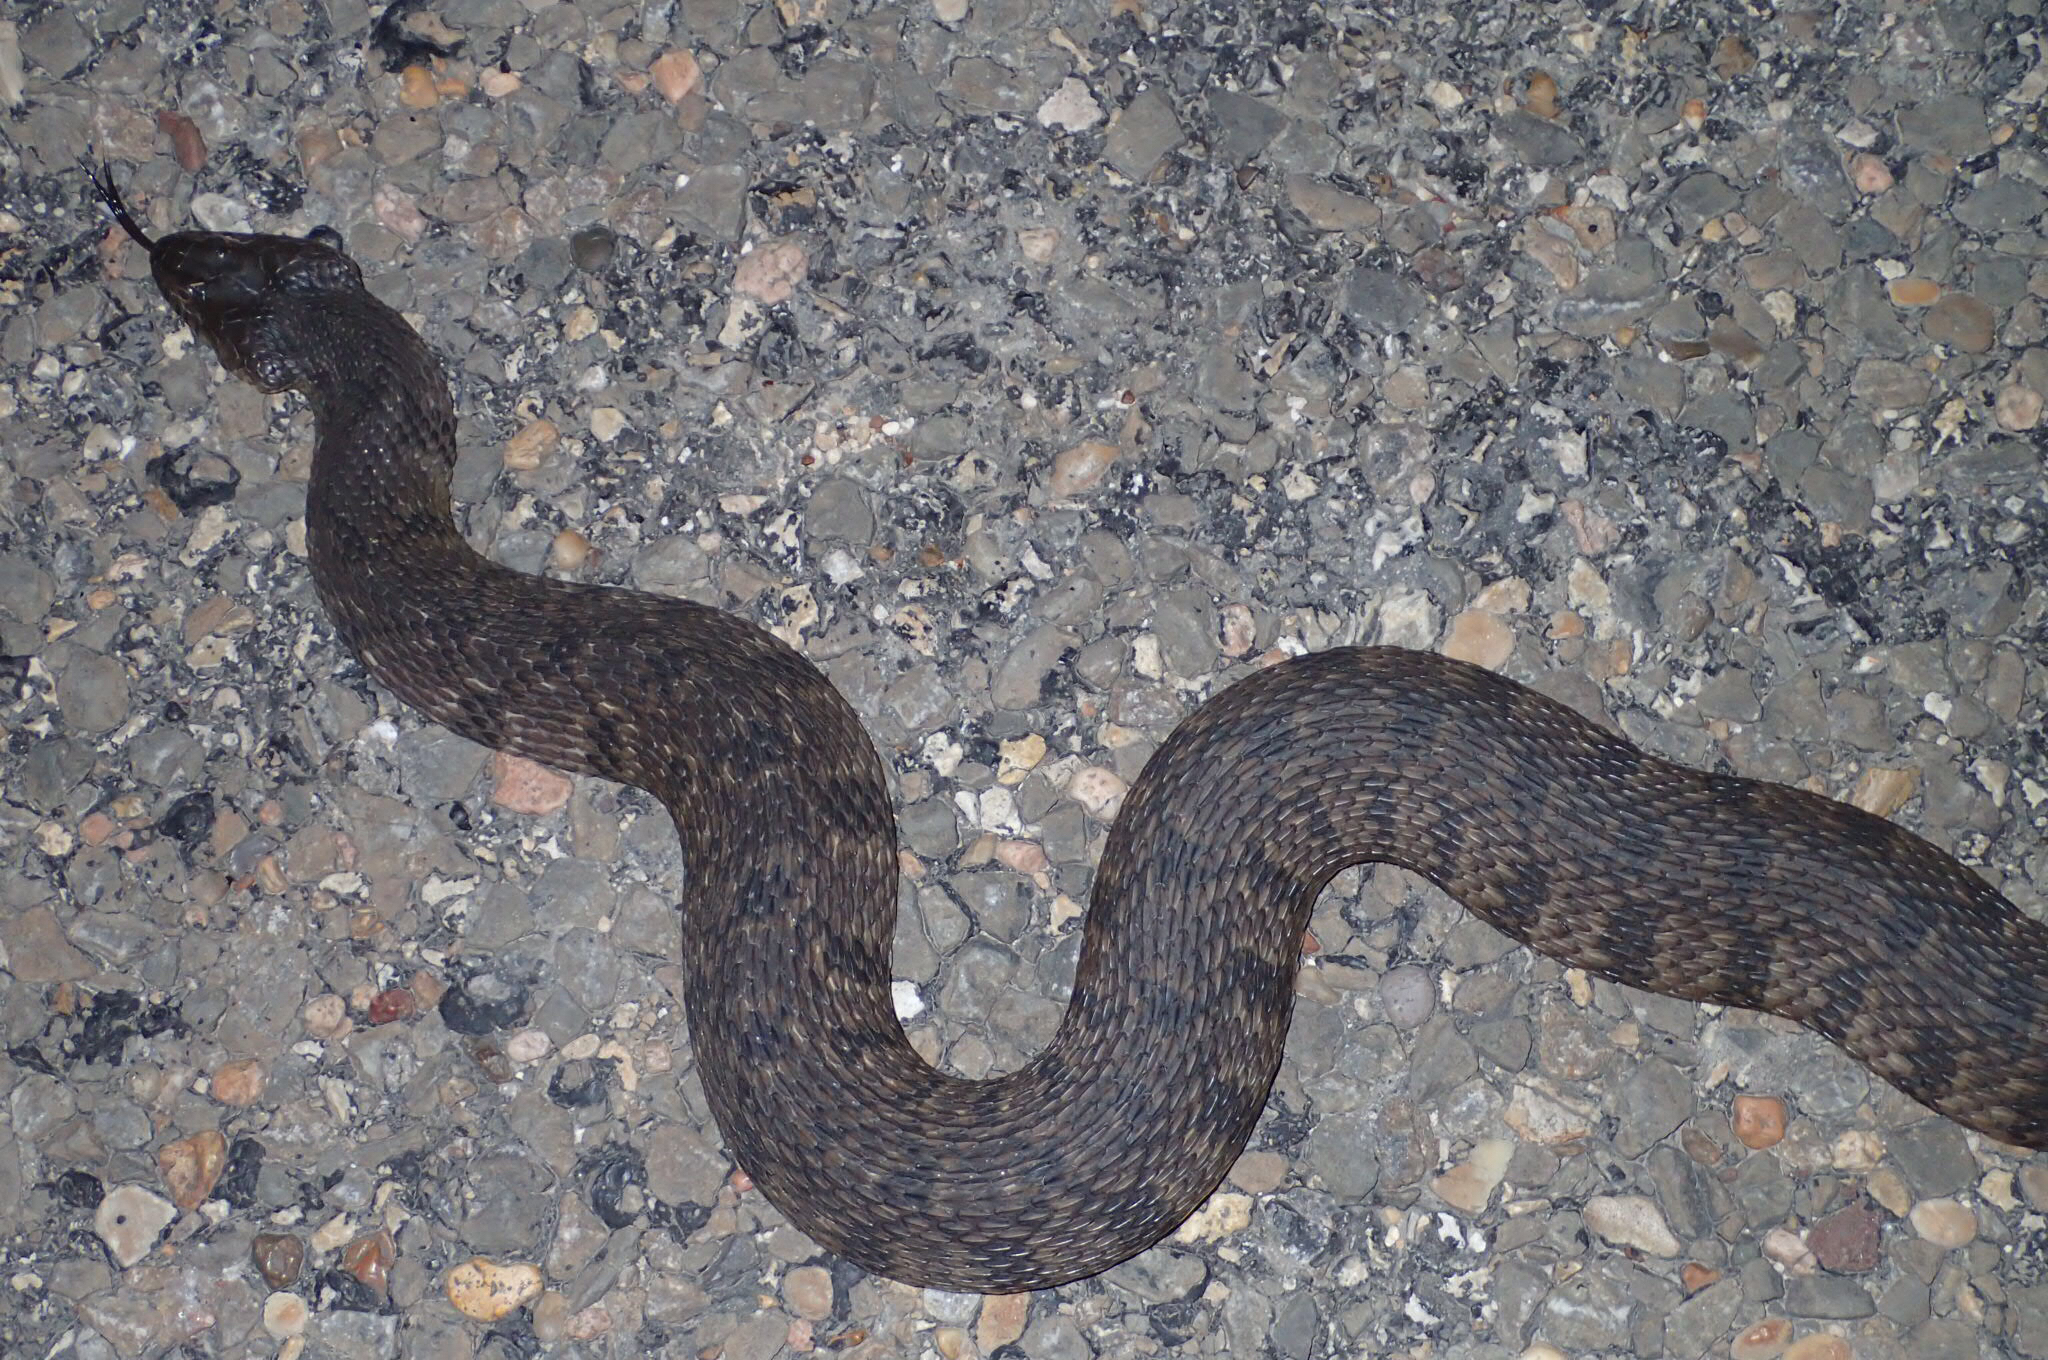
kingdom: Animalia
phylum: Chordata
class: Squamata
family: Colubridae
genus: Nerodia
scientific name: Nerodia rhombifer
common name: Diamondback water snake
